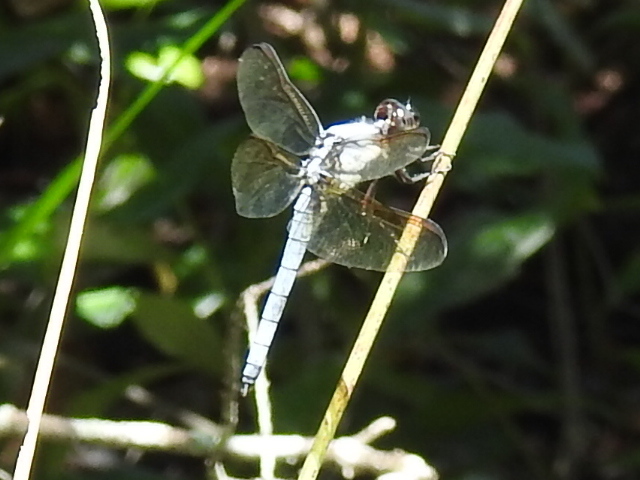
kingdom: Animalia
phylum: Arthropoda
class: Insecta
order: Odonata
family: Libellulidae
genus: Libellula
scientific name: Libellula flavida
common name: Yellow-sided skimmer
